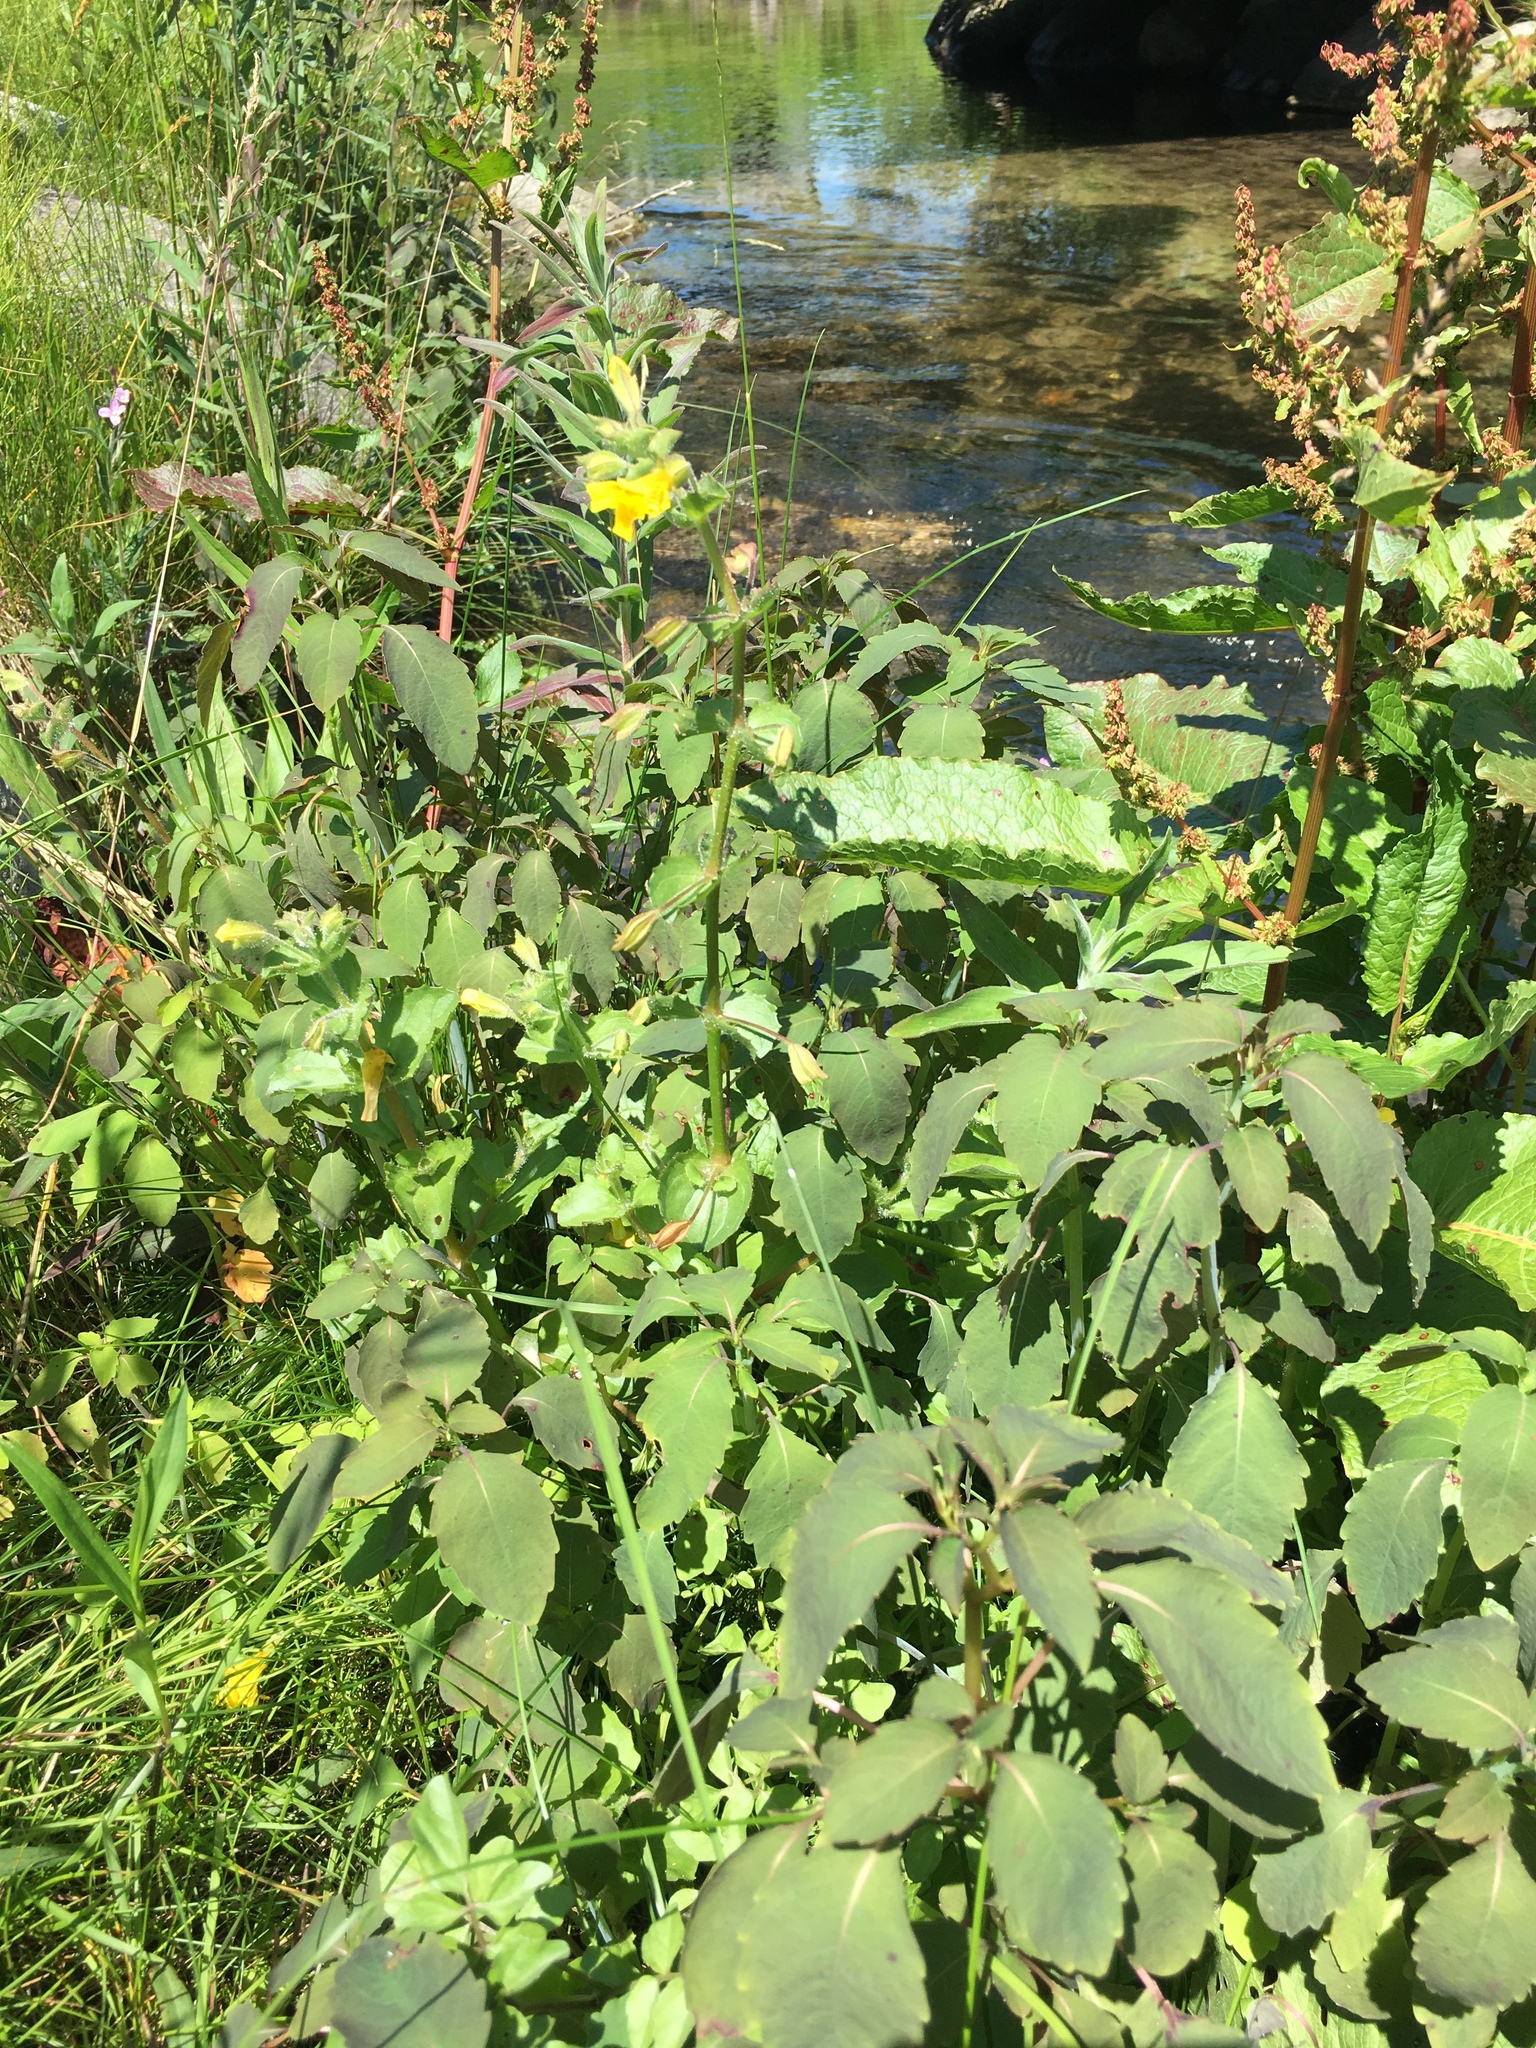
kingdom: Plantae
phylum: Tracheophyta
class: Magnoliopsida
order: Lamiales
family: Phrymaceae
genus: Erythranthe
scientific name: Erythranthe michiganensis
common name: Michigan monkey-flower
